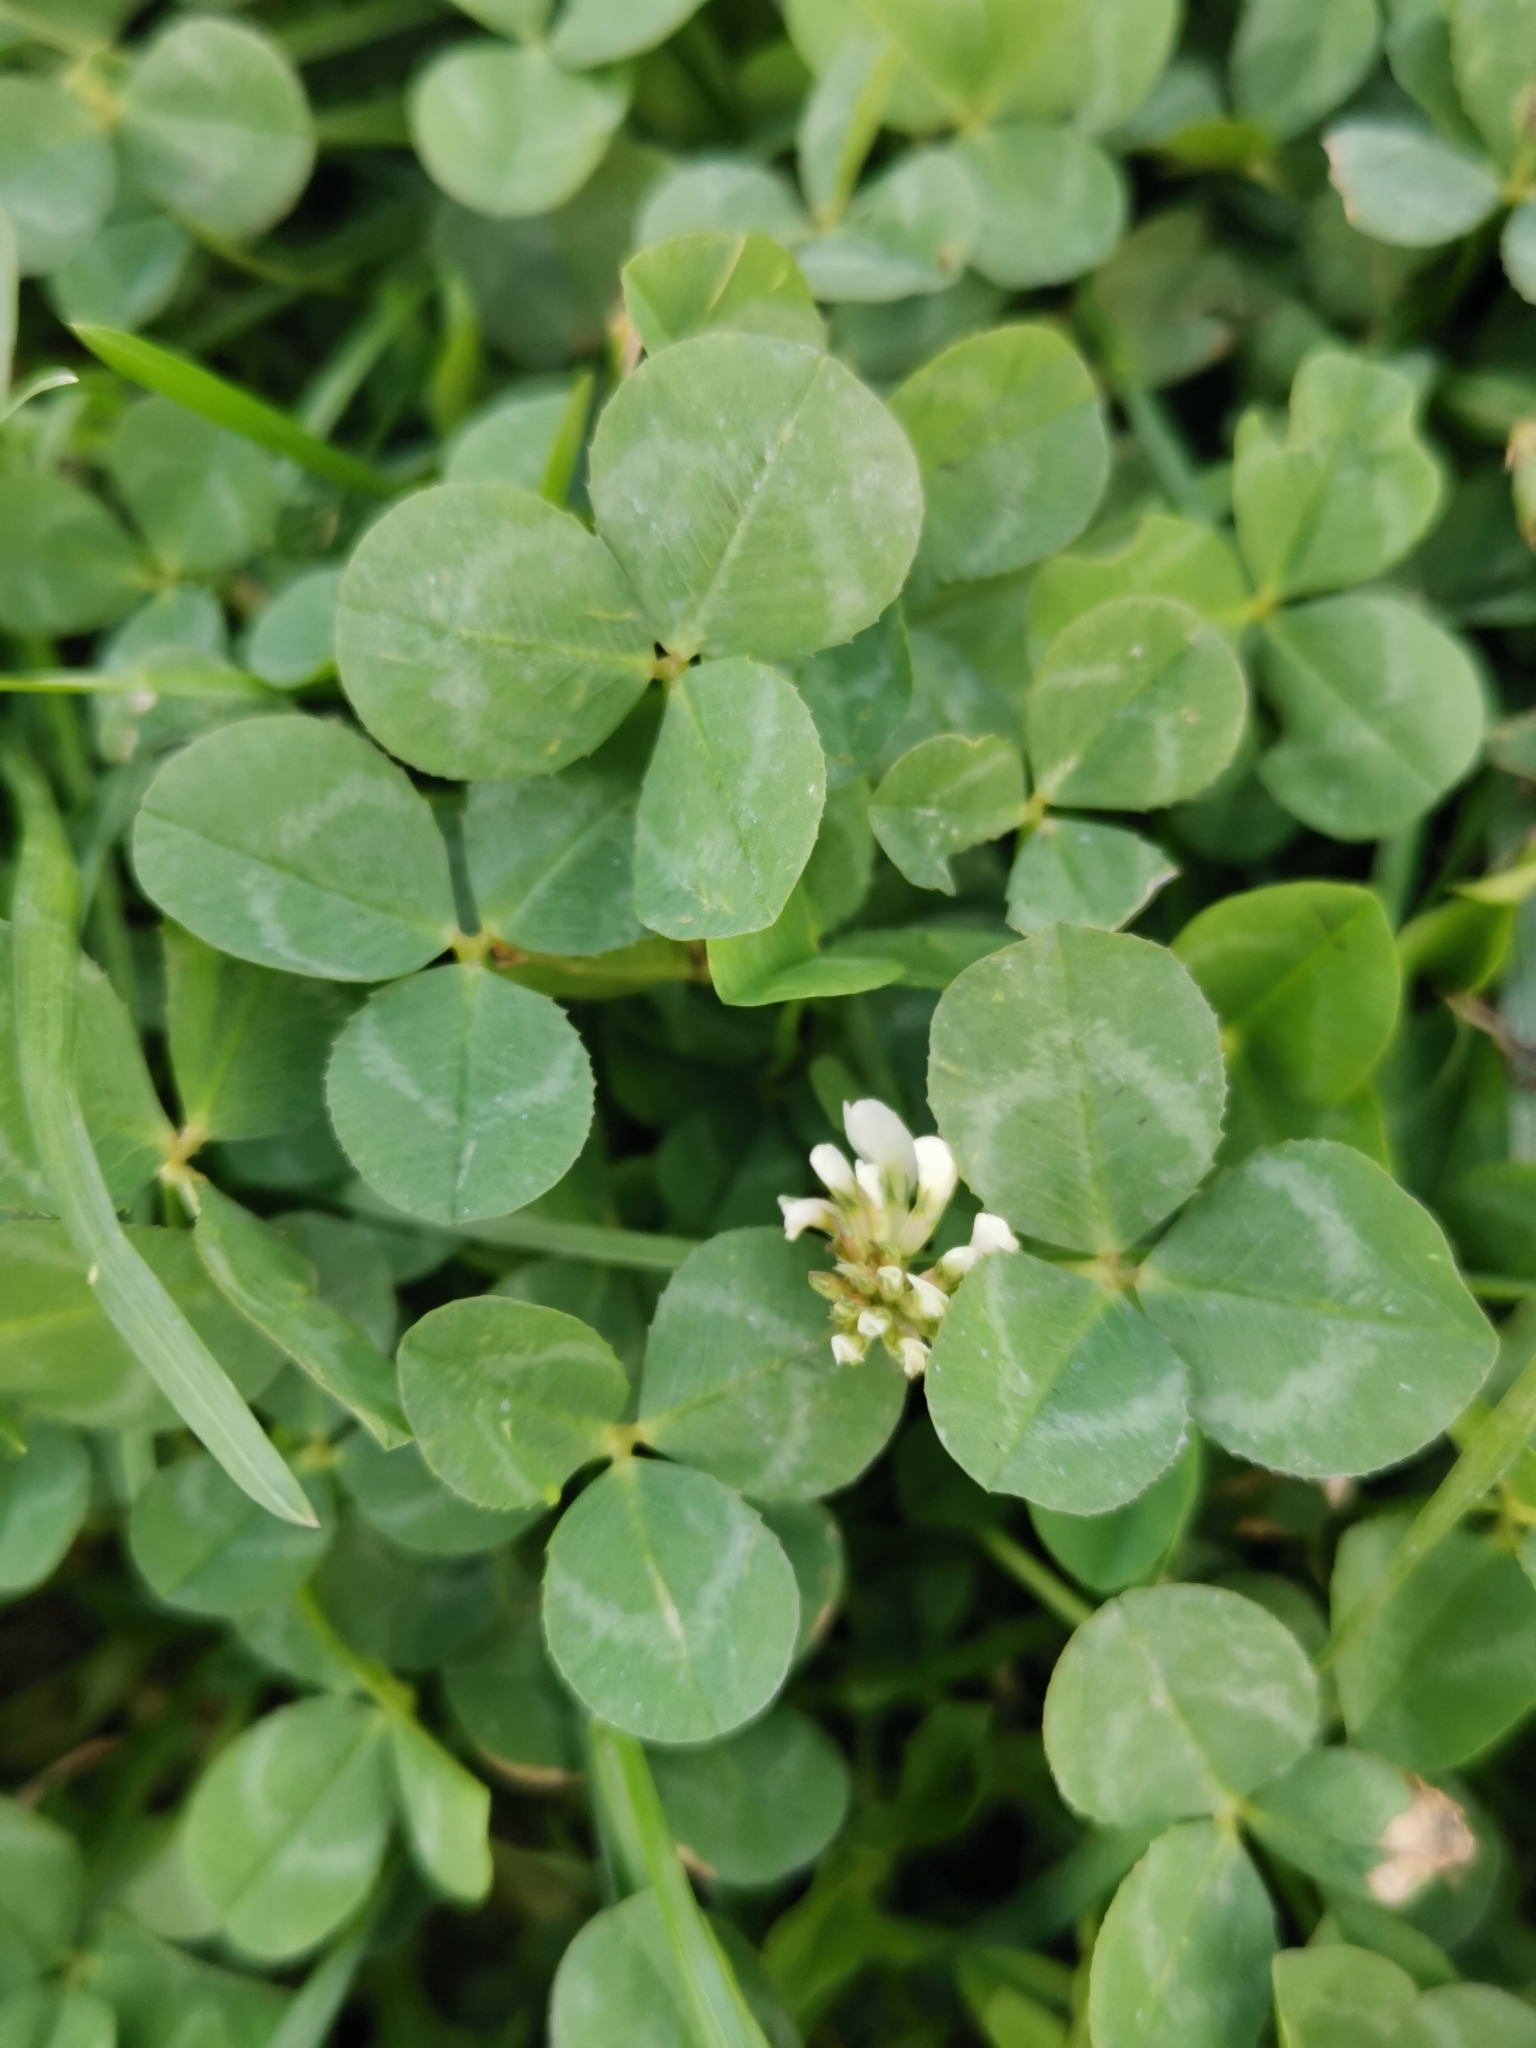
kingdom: Plantae
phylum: Tracheophyta
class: Magnoliopsida
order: Fabales
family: Fabaceae
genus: Trifolium
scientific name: Trifolium repens
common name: White clover
